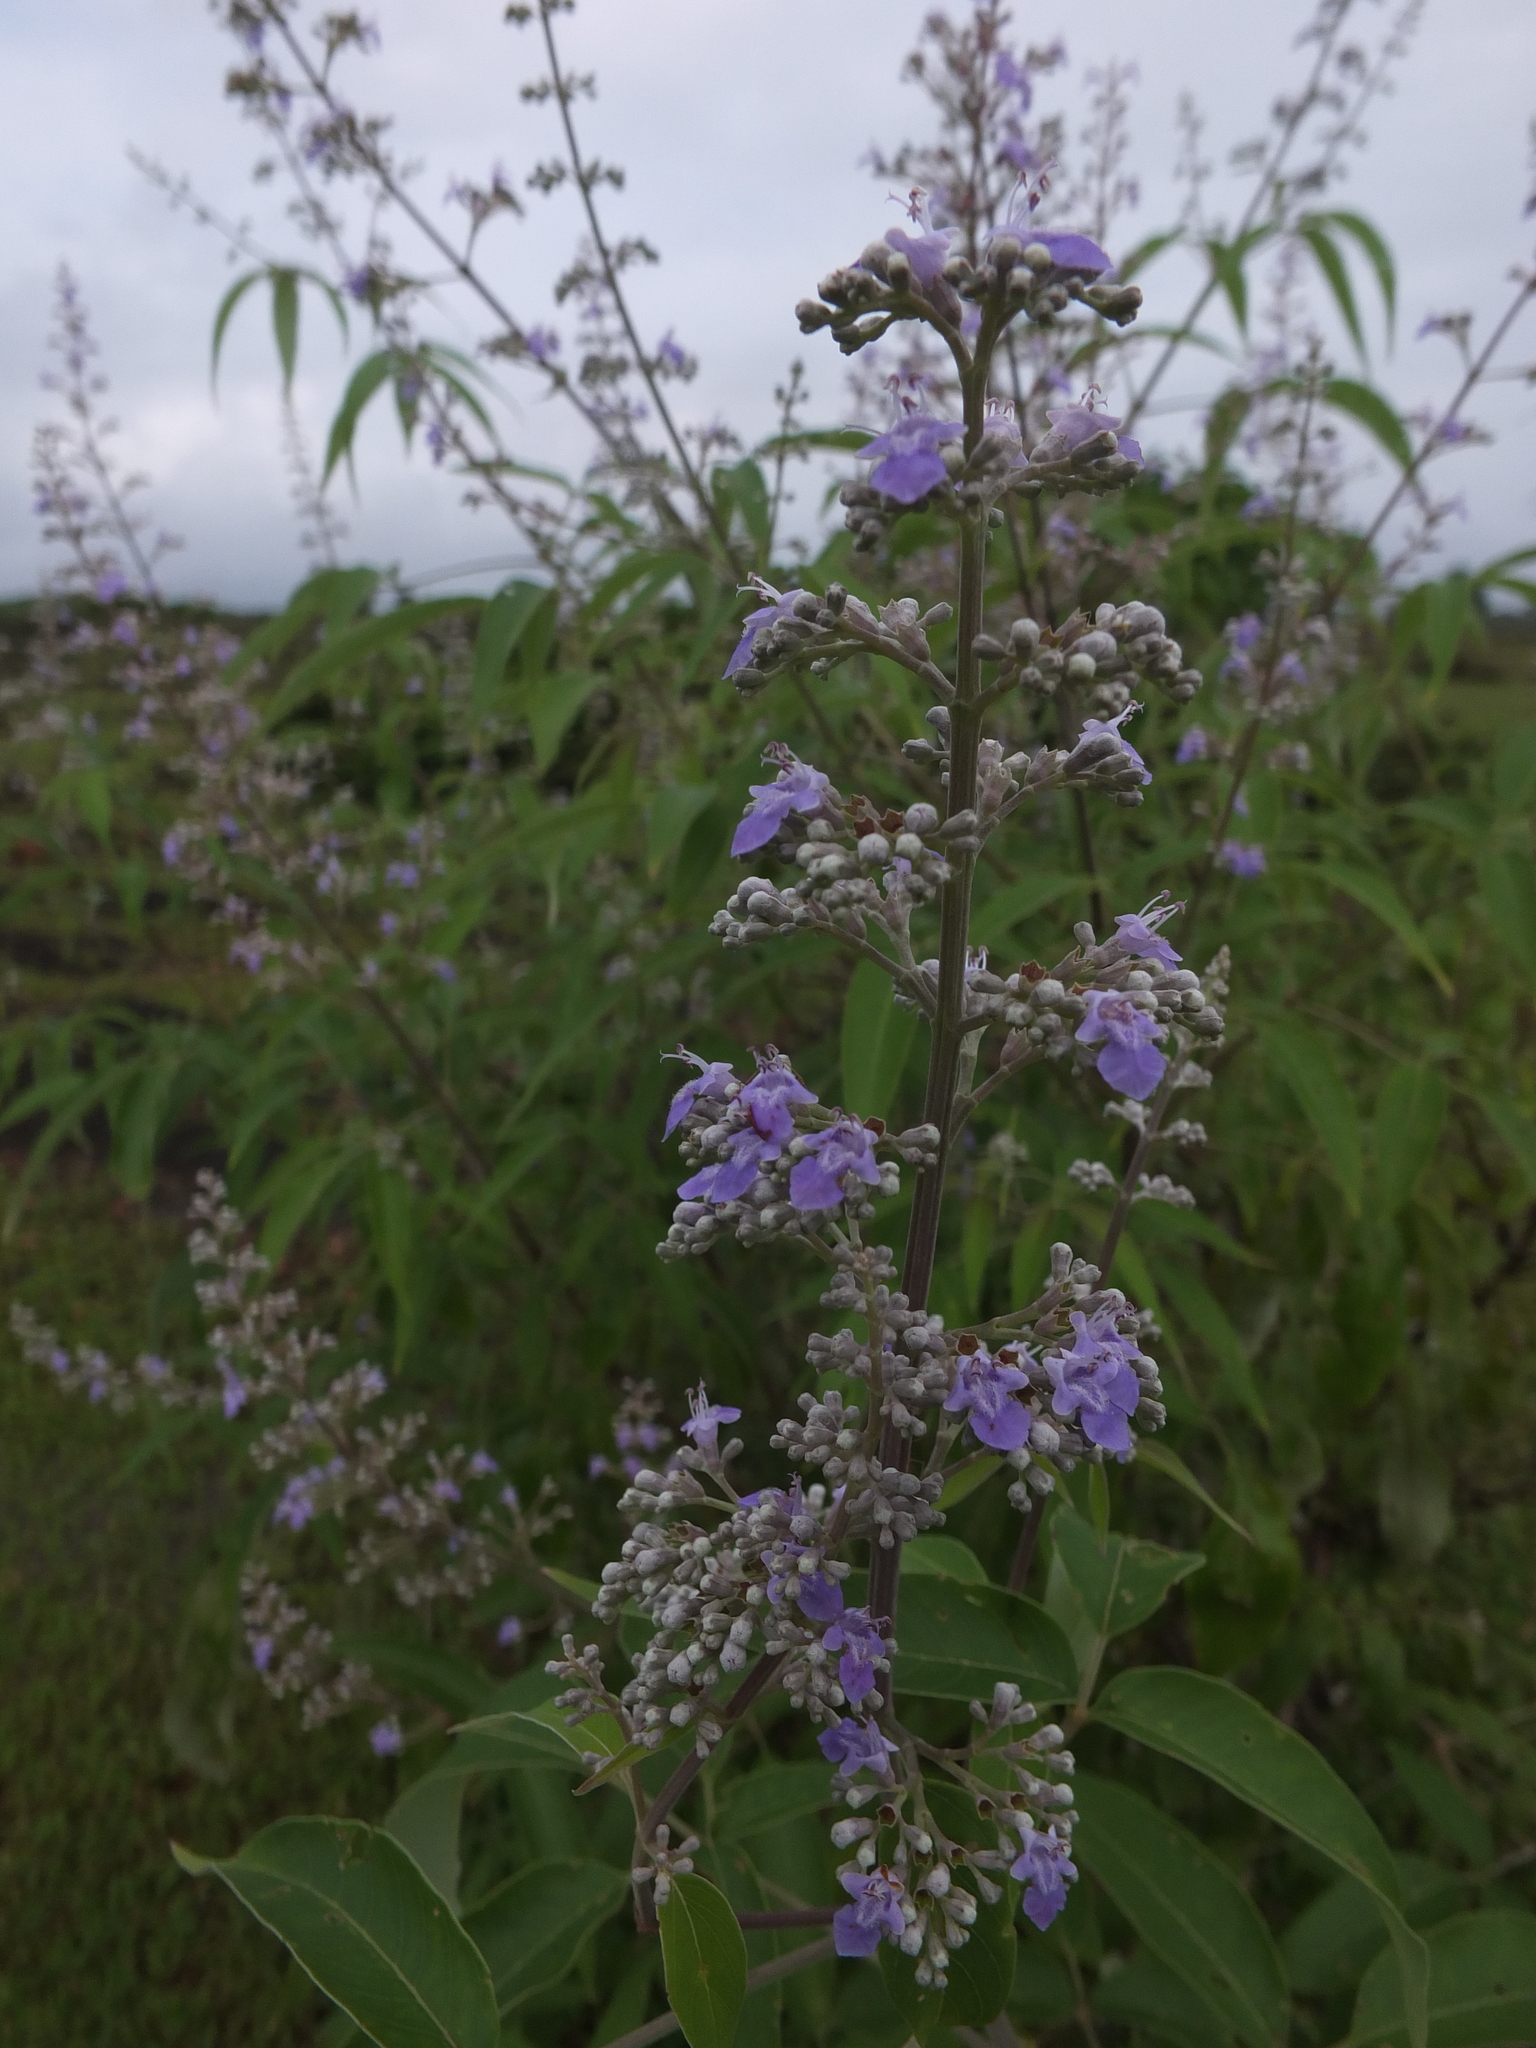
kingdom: Plantae
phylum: Tracheophyta
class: Magnoliopsida
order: Lamiales
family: Lamiaceae
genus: Vitex
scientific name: Vitex negundo
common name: Chinese chastetree
